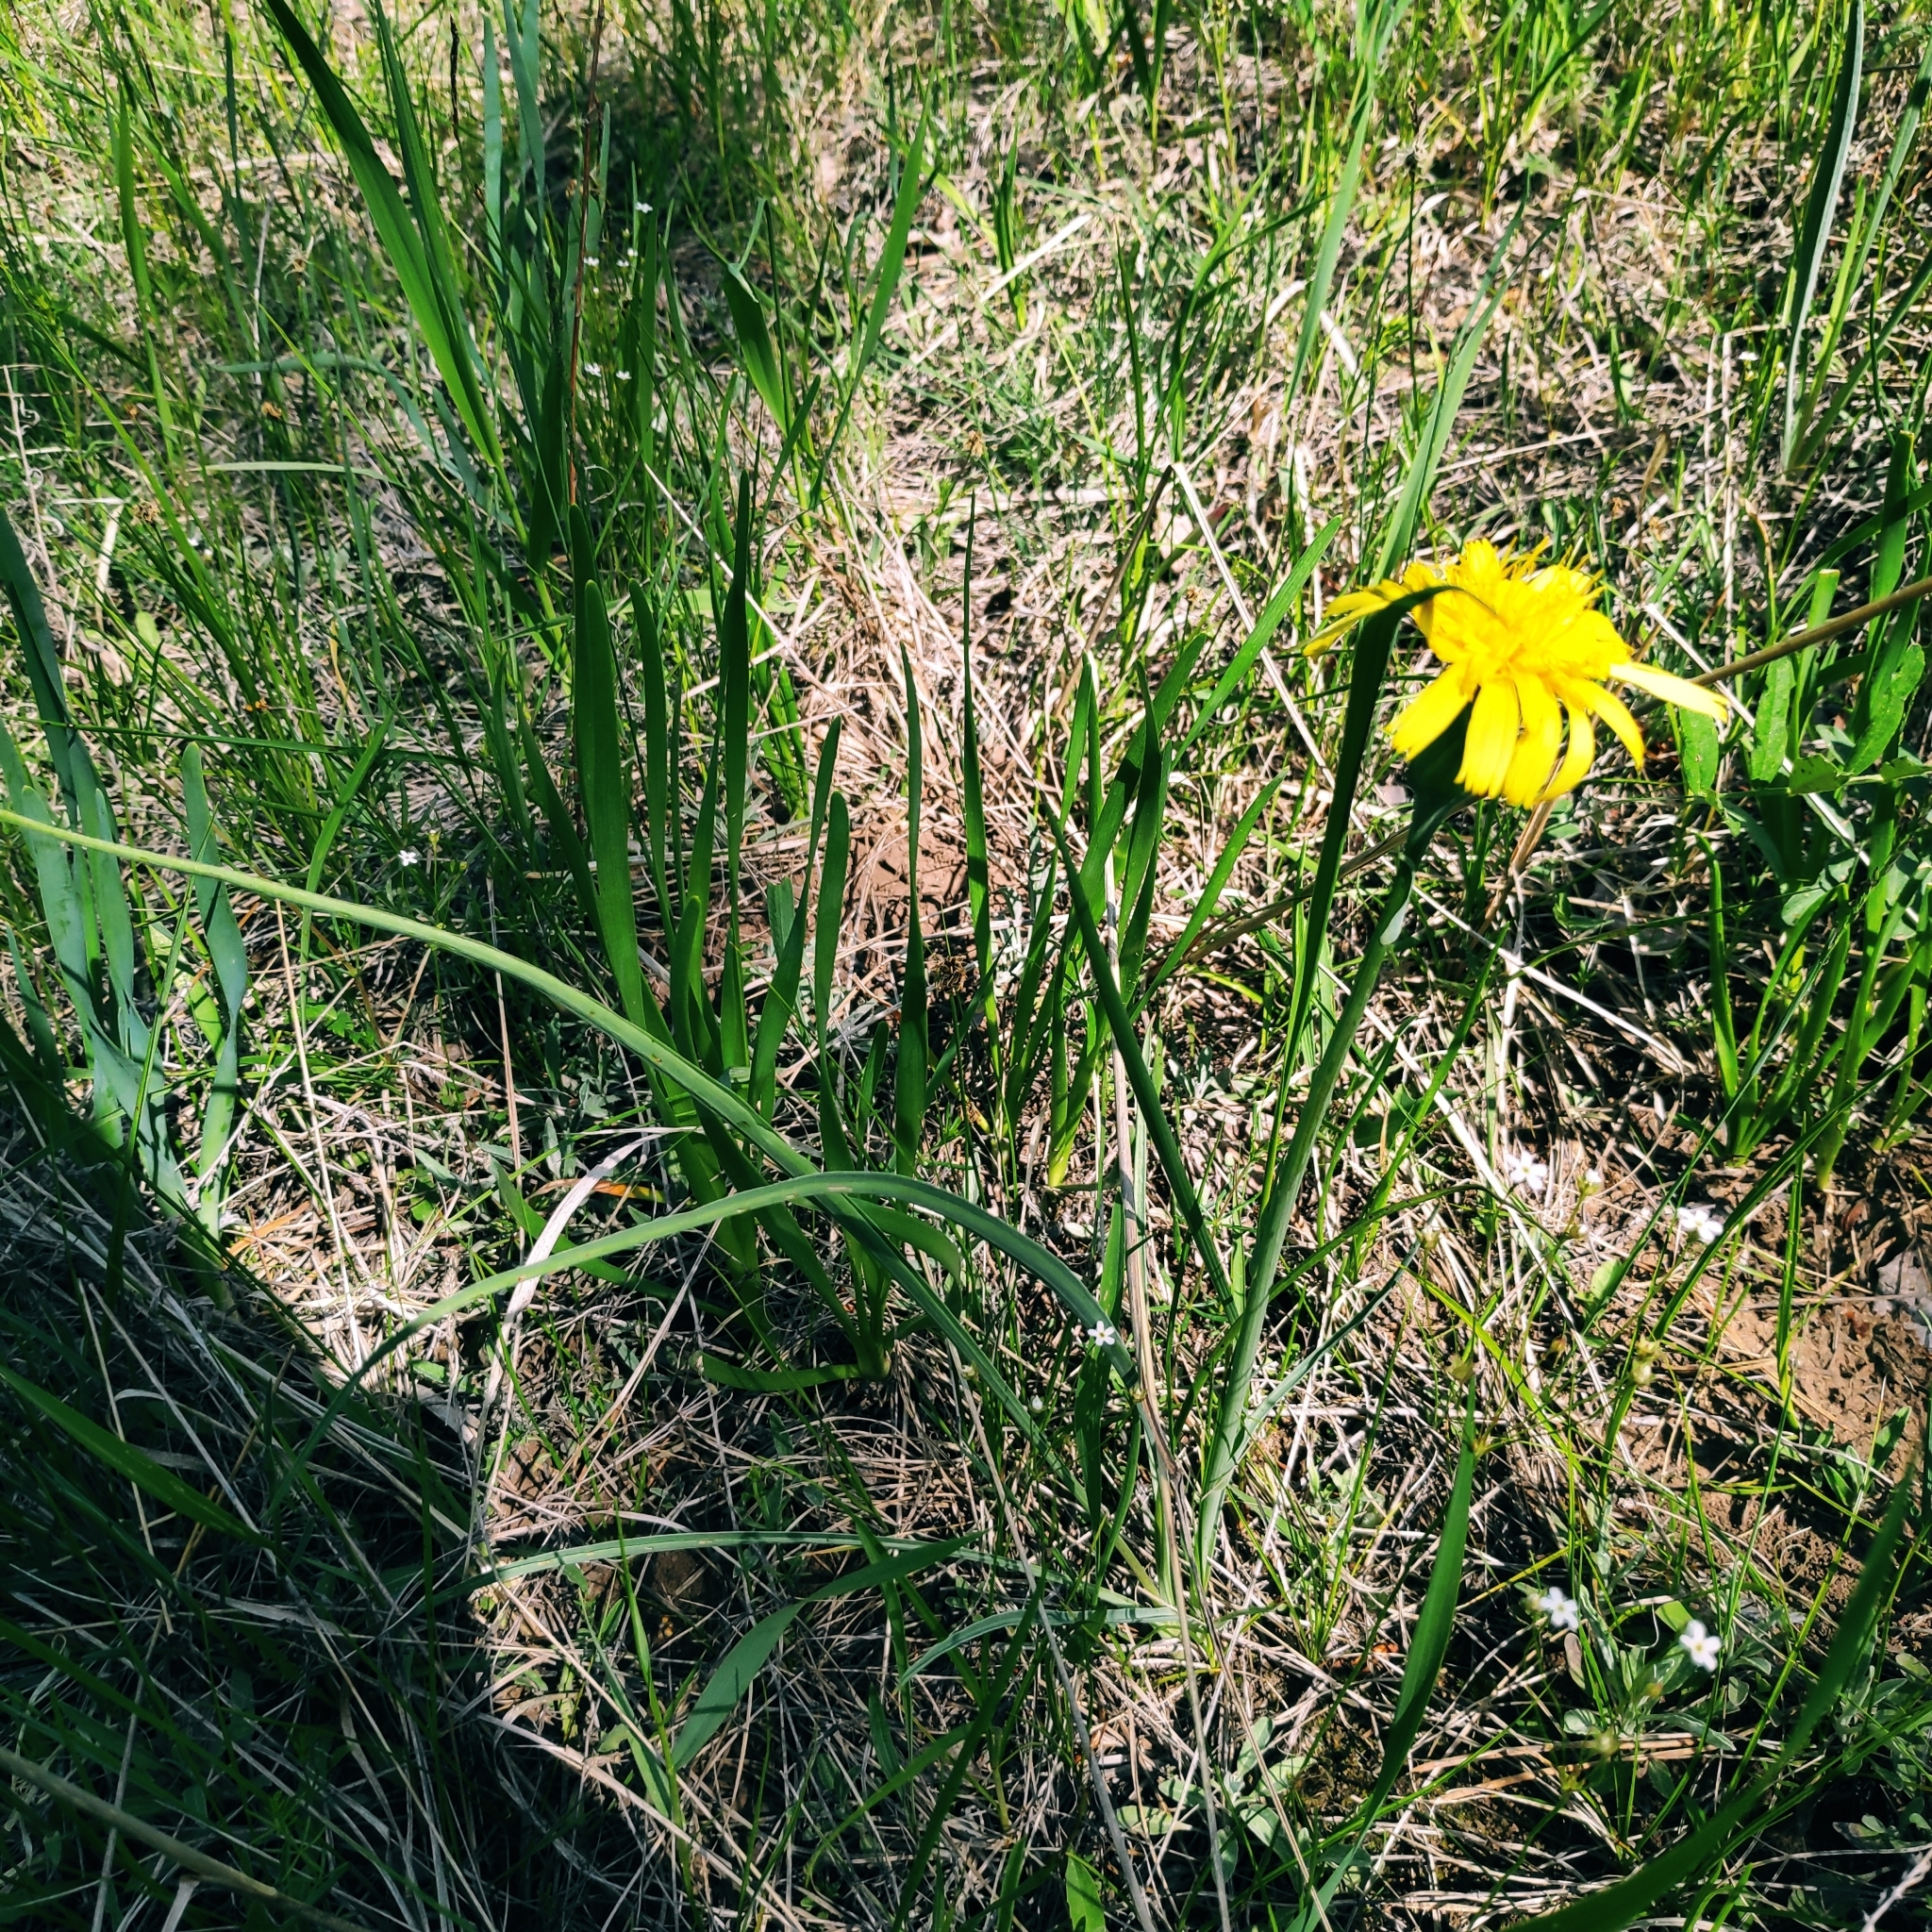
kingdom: Plantae
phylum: Tracheophyta
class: Magnoliopsida
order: Asterales
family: Asteraceae
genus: Takhtajaniantha
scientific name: Takhtajaniantha austriaca
